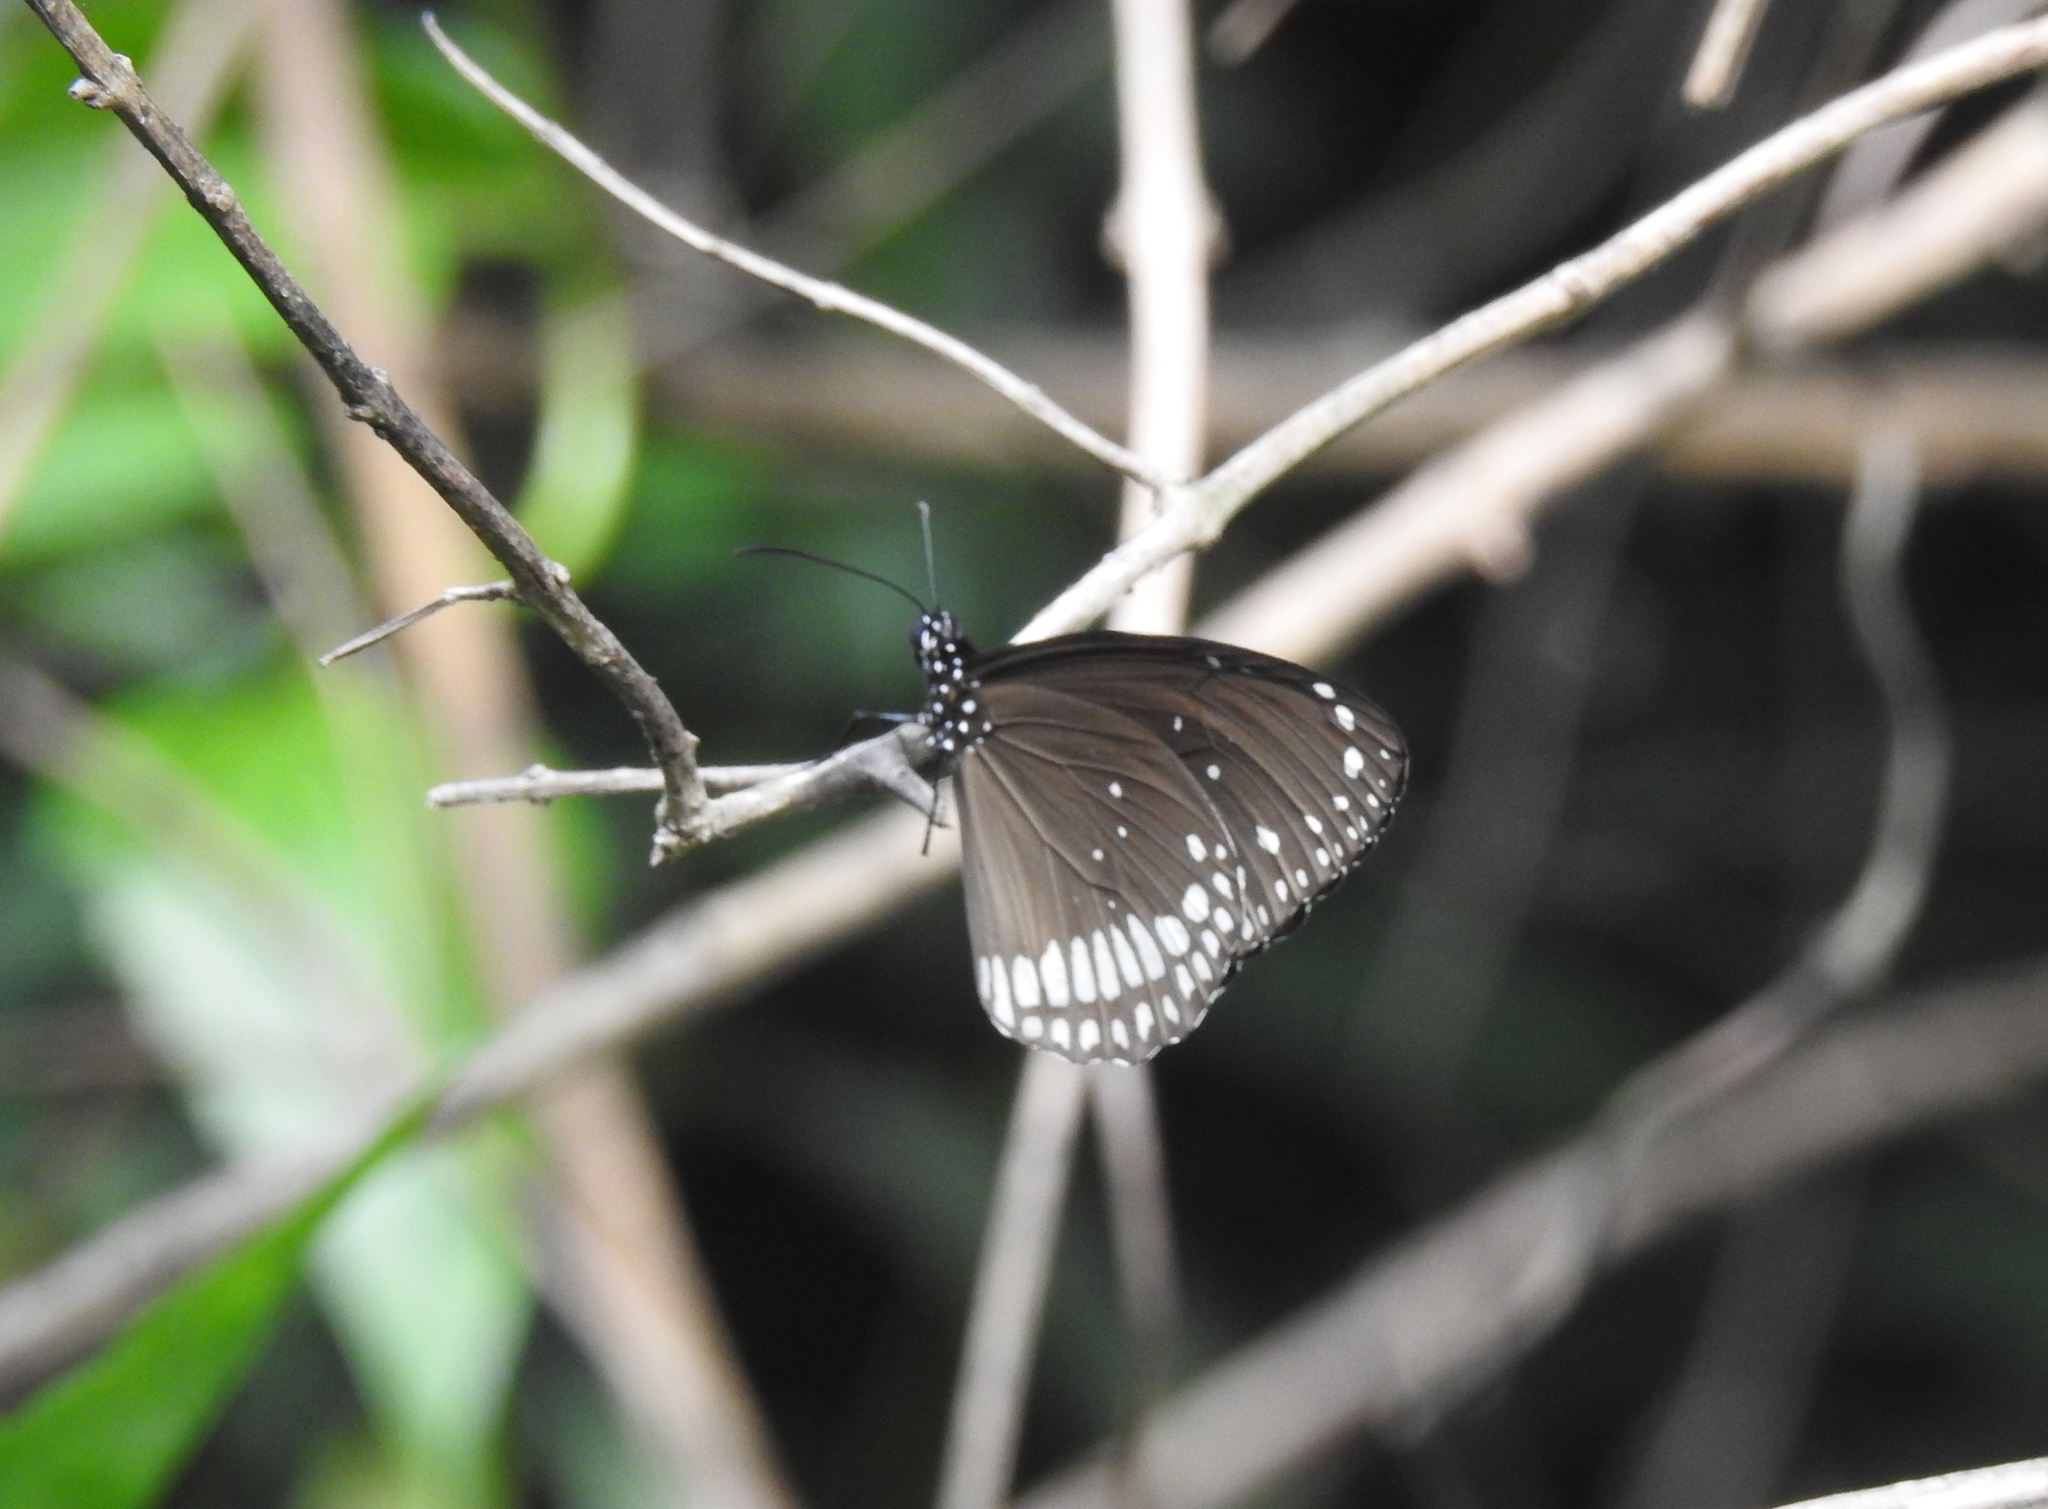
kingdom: Animalia
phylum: Arthropoda
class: Insecta
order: Lepidoptera
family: Nymphalidae
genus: Euploea
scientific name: Euploea core
